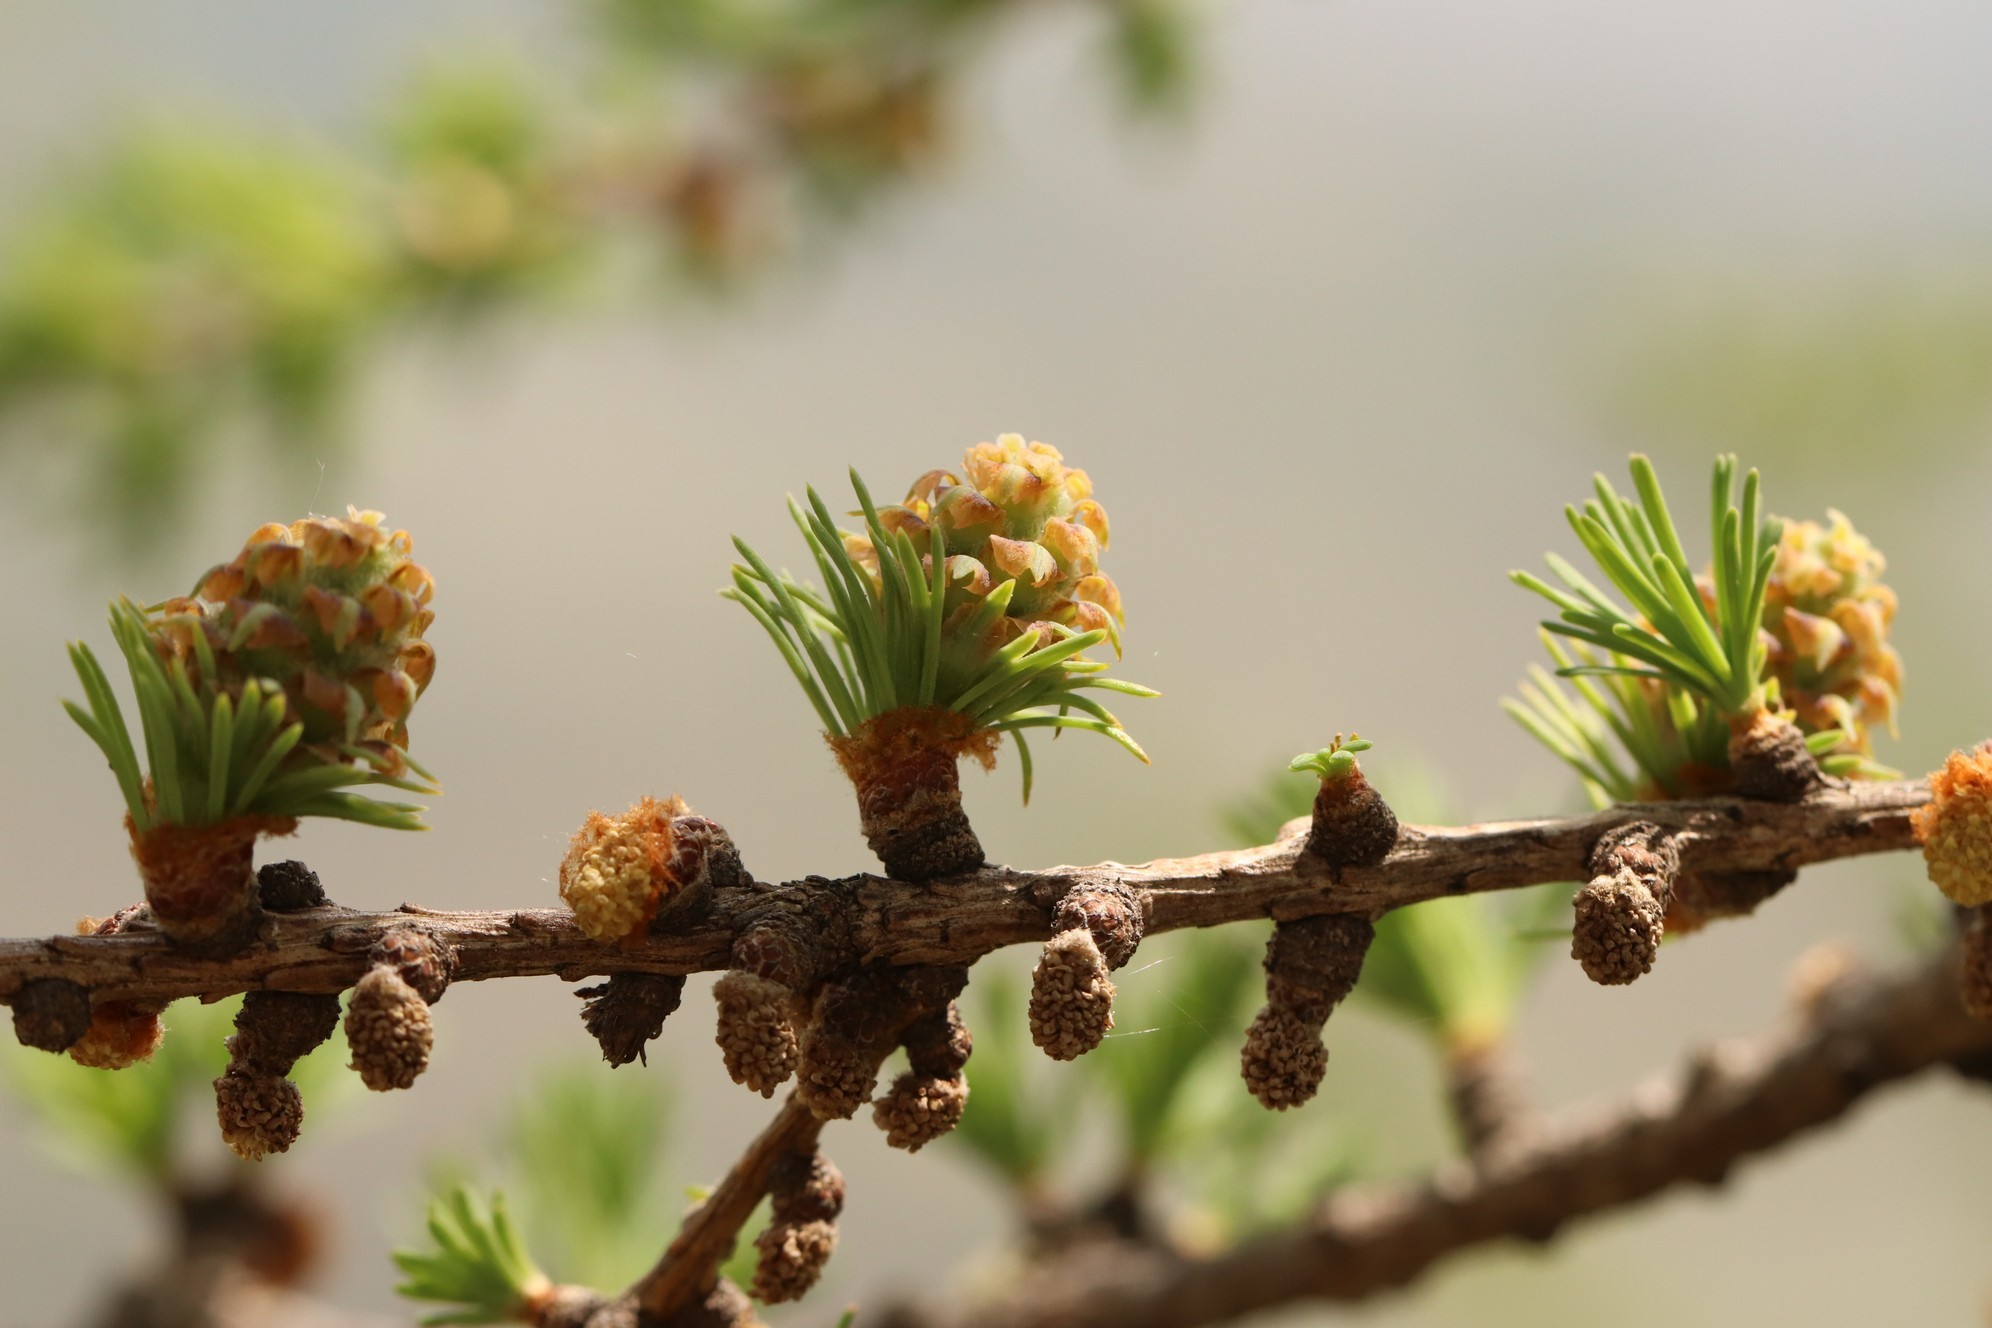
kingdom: Plantae
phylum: Tracheophyta
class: Pinopsida
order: Pinales
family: Pinaceae
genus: Larix
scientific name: Larix sibirica
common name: Siberian larch
